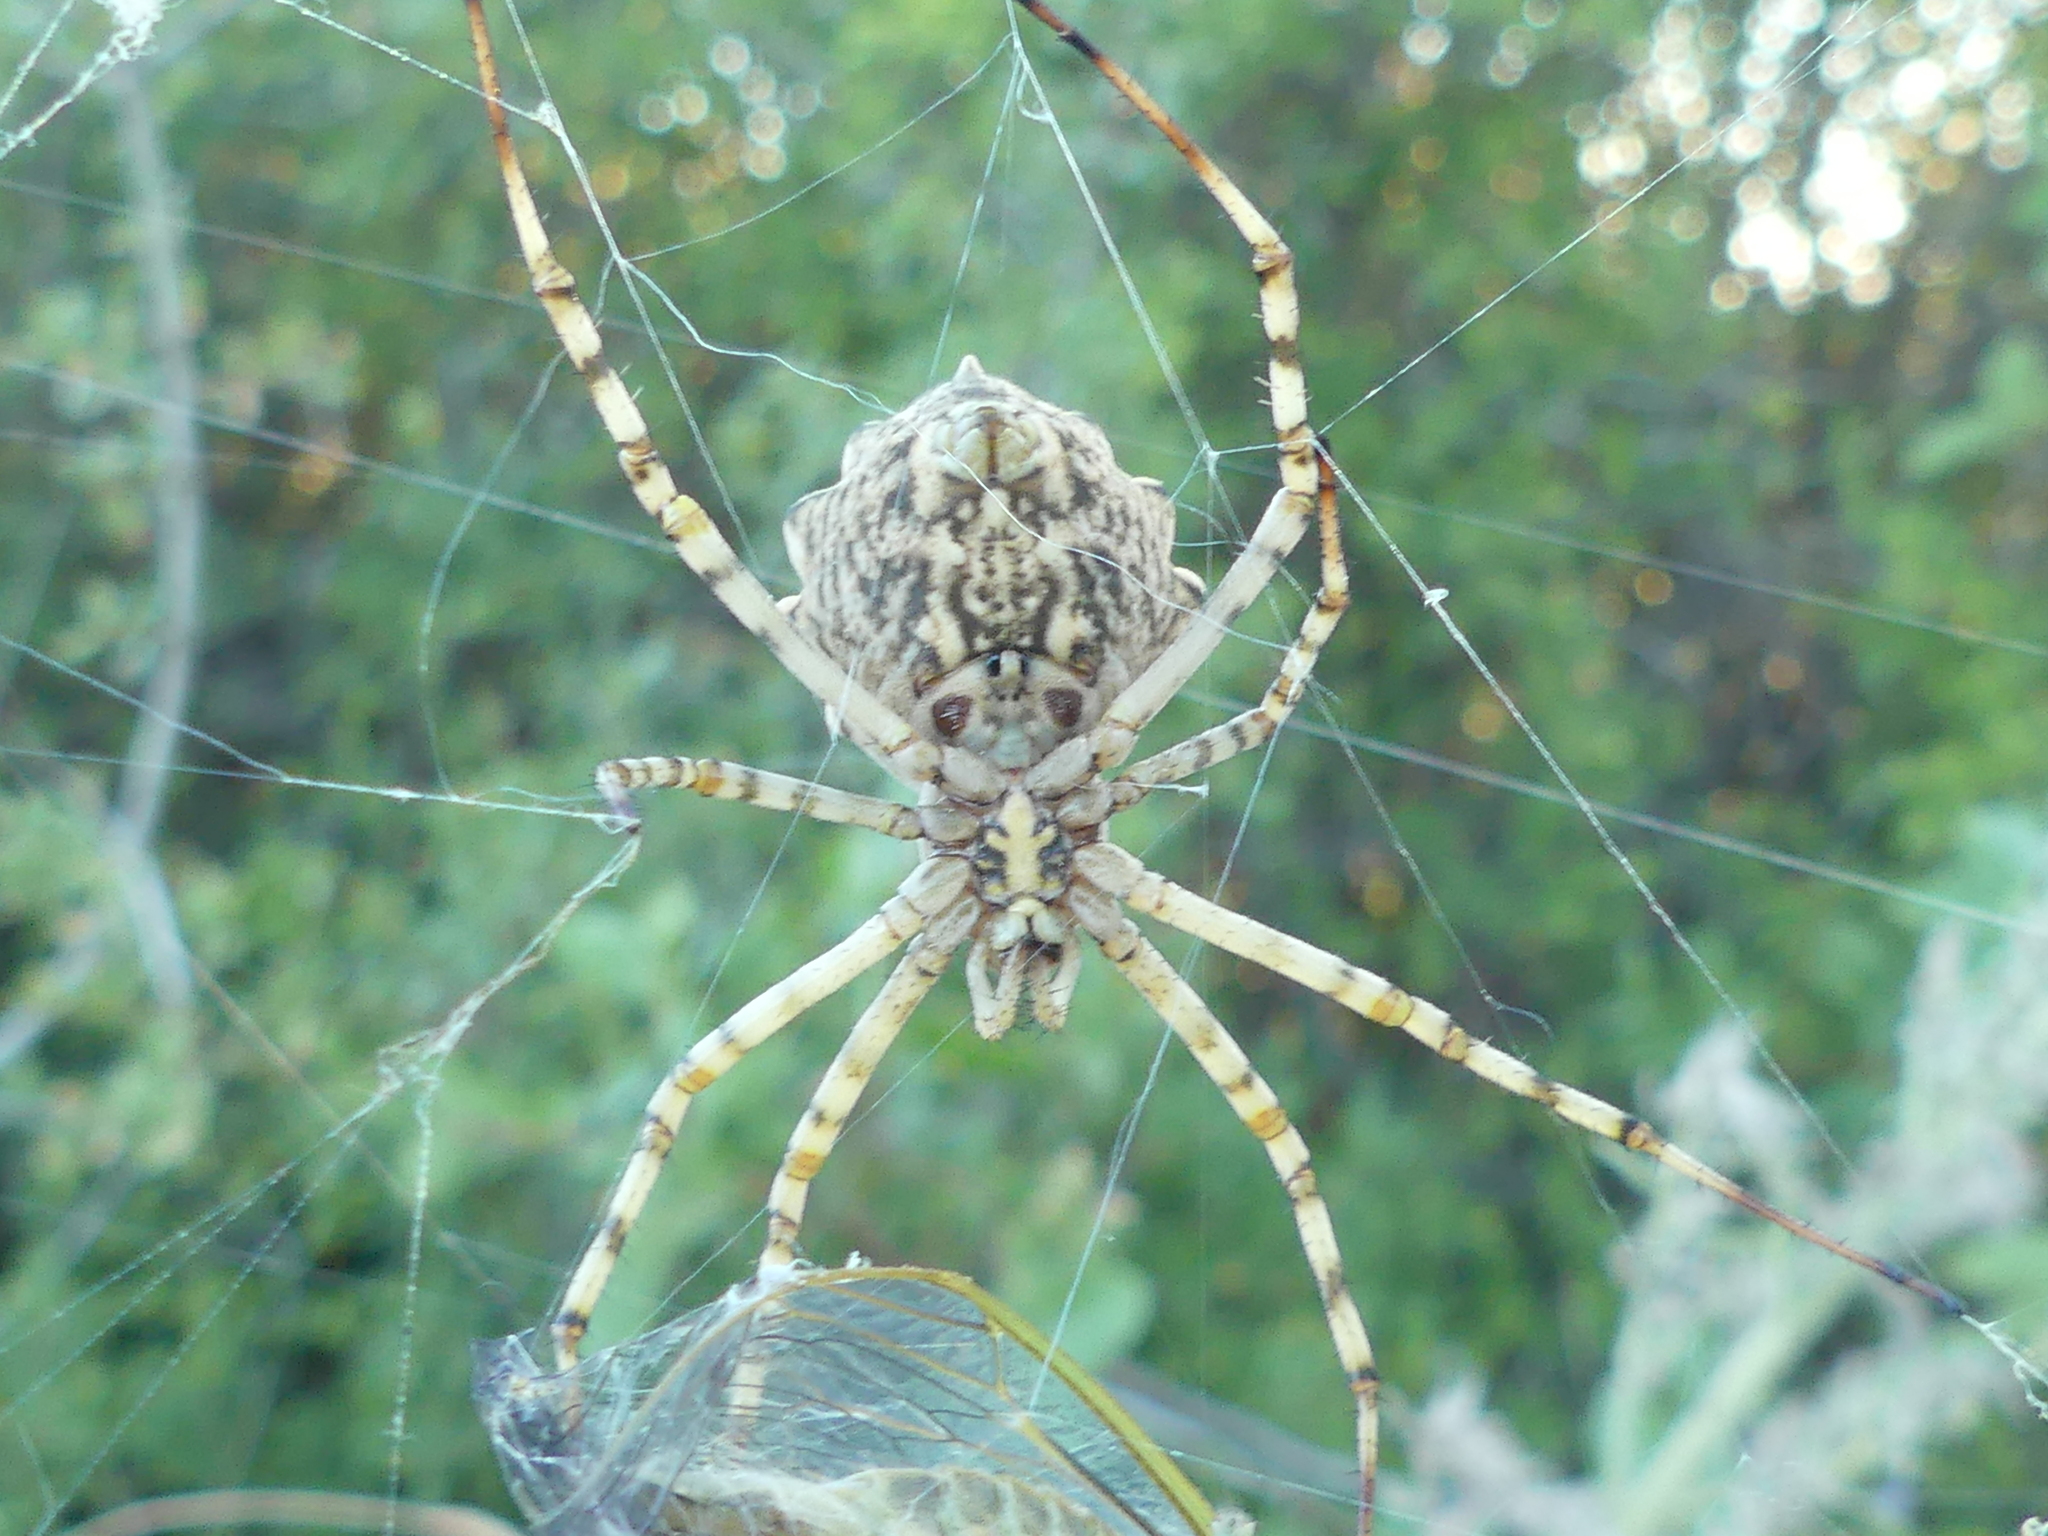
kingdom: Animalia
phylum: Arthropoda
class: Arachnida
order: Araneae
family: Araneidae
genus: Argiope
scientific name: Argiope lobata
